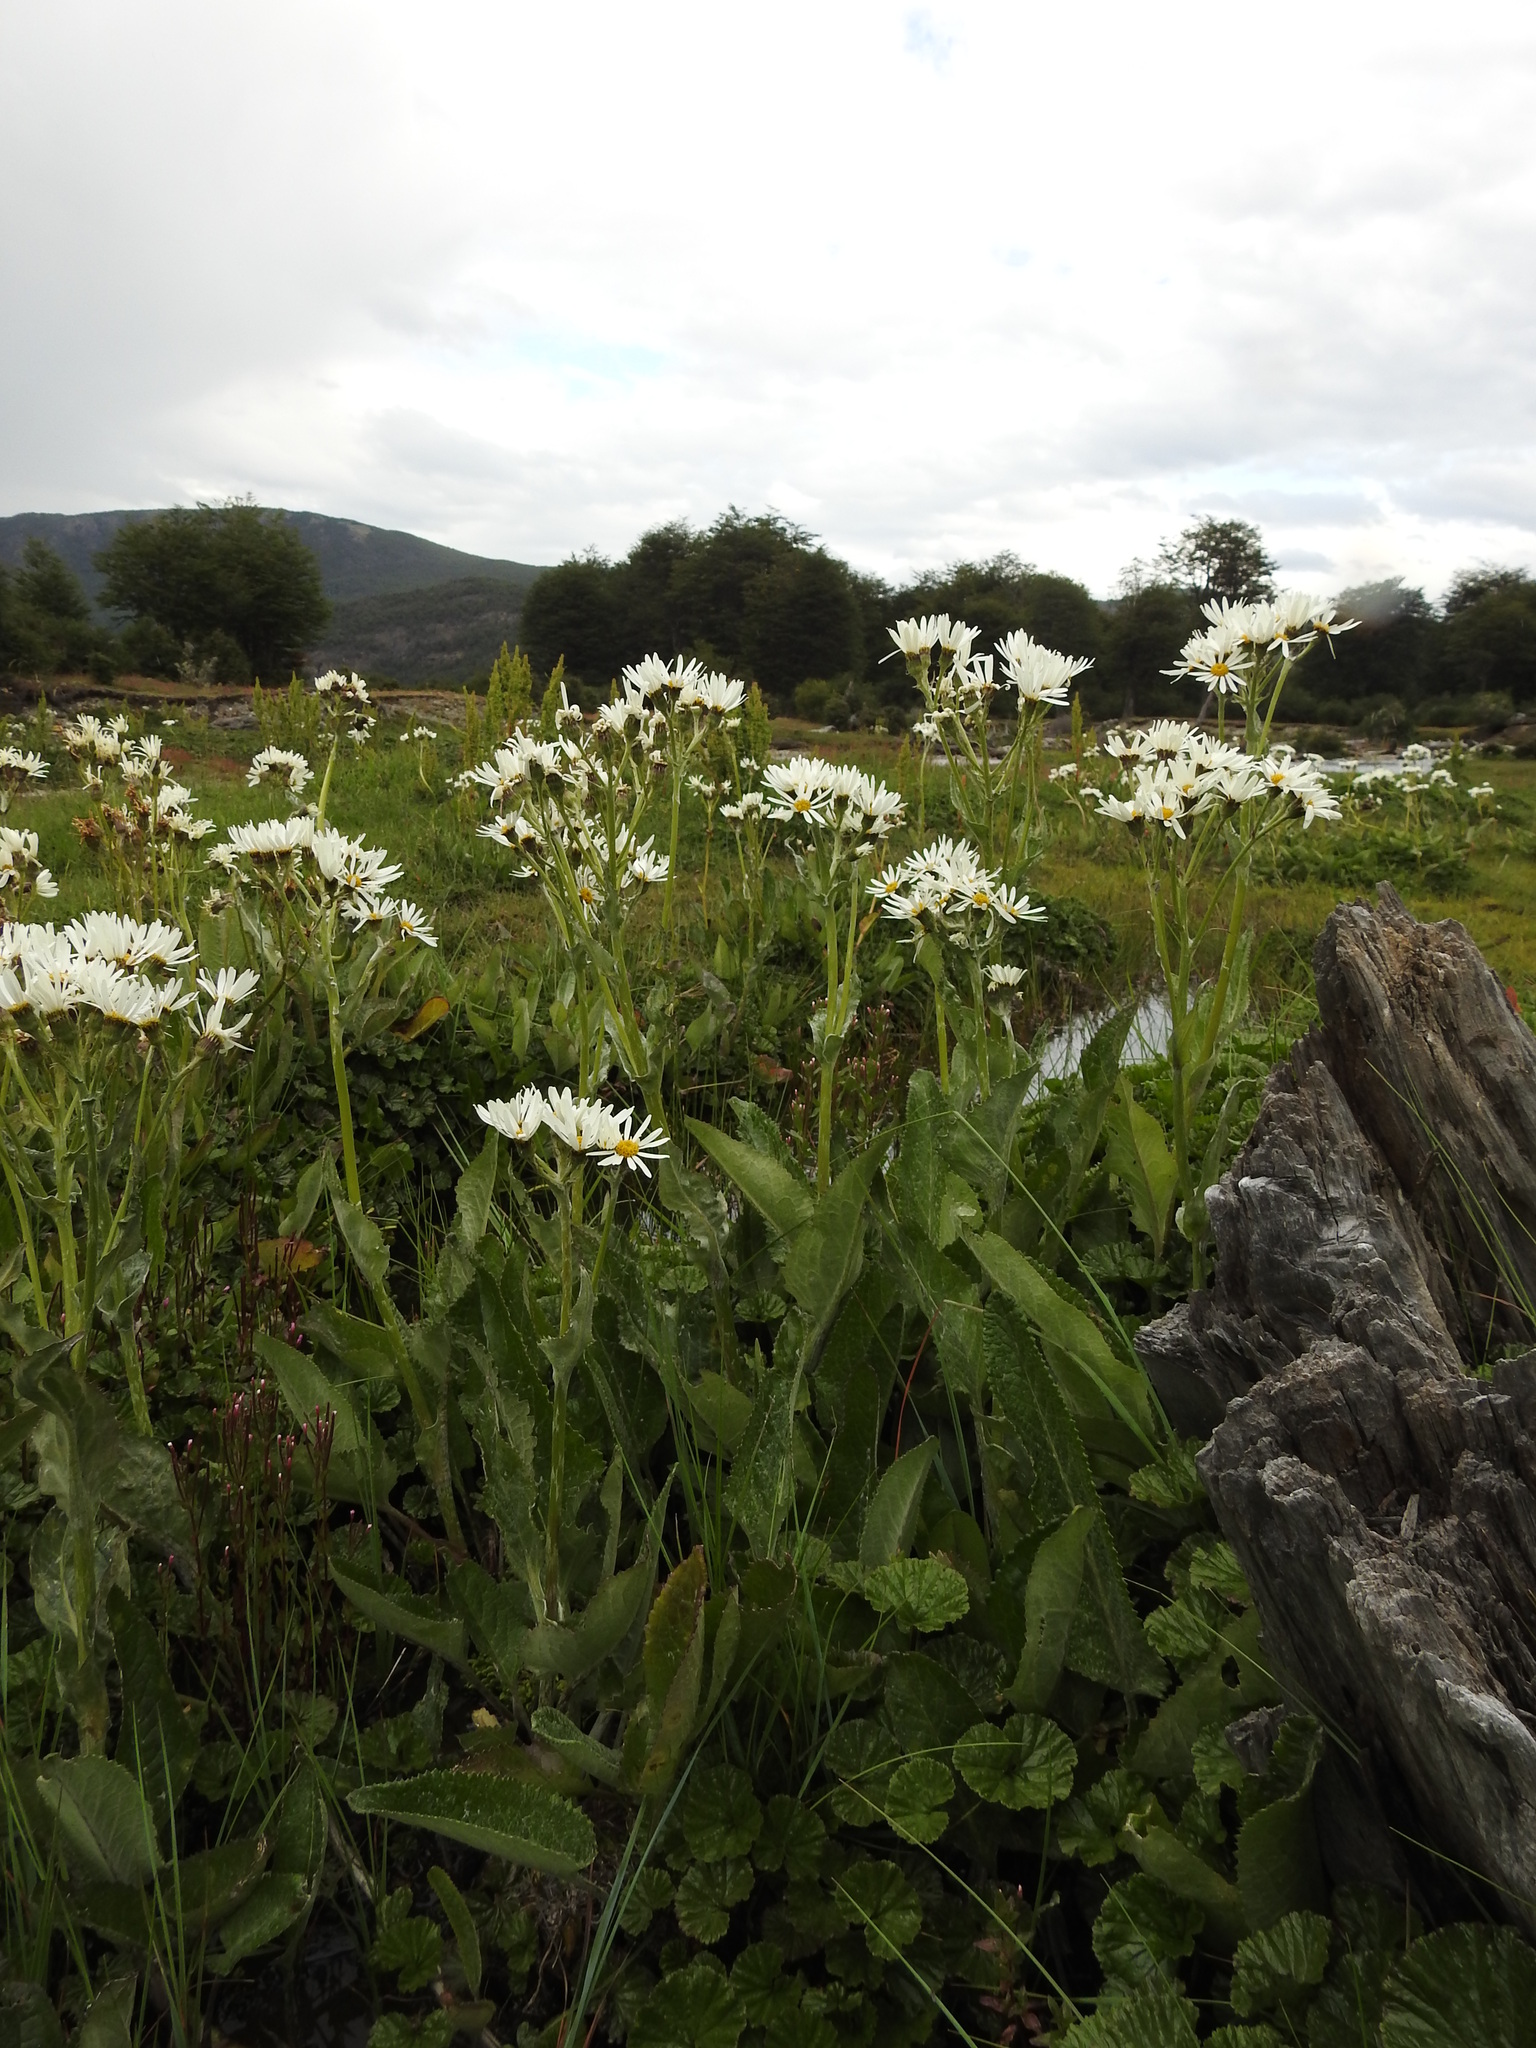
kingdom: Plantae
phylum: Tracheophyta
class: Magnoliopsida
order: Asterales
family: Asteraceae
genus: Senecio
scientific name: Senecio smithii
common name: Magellan ragwort
